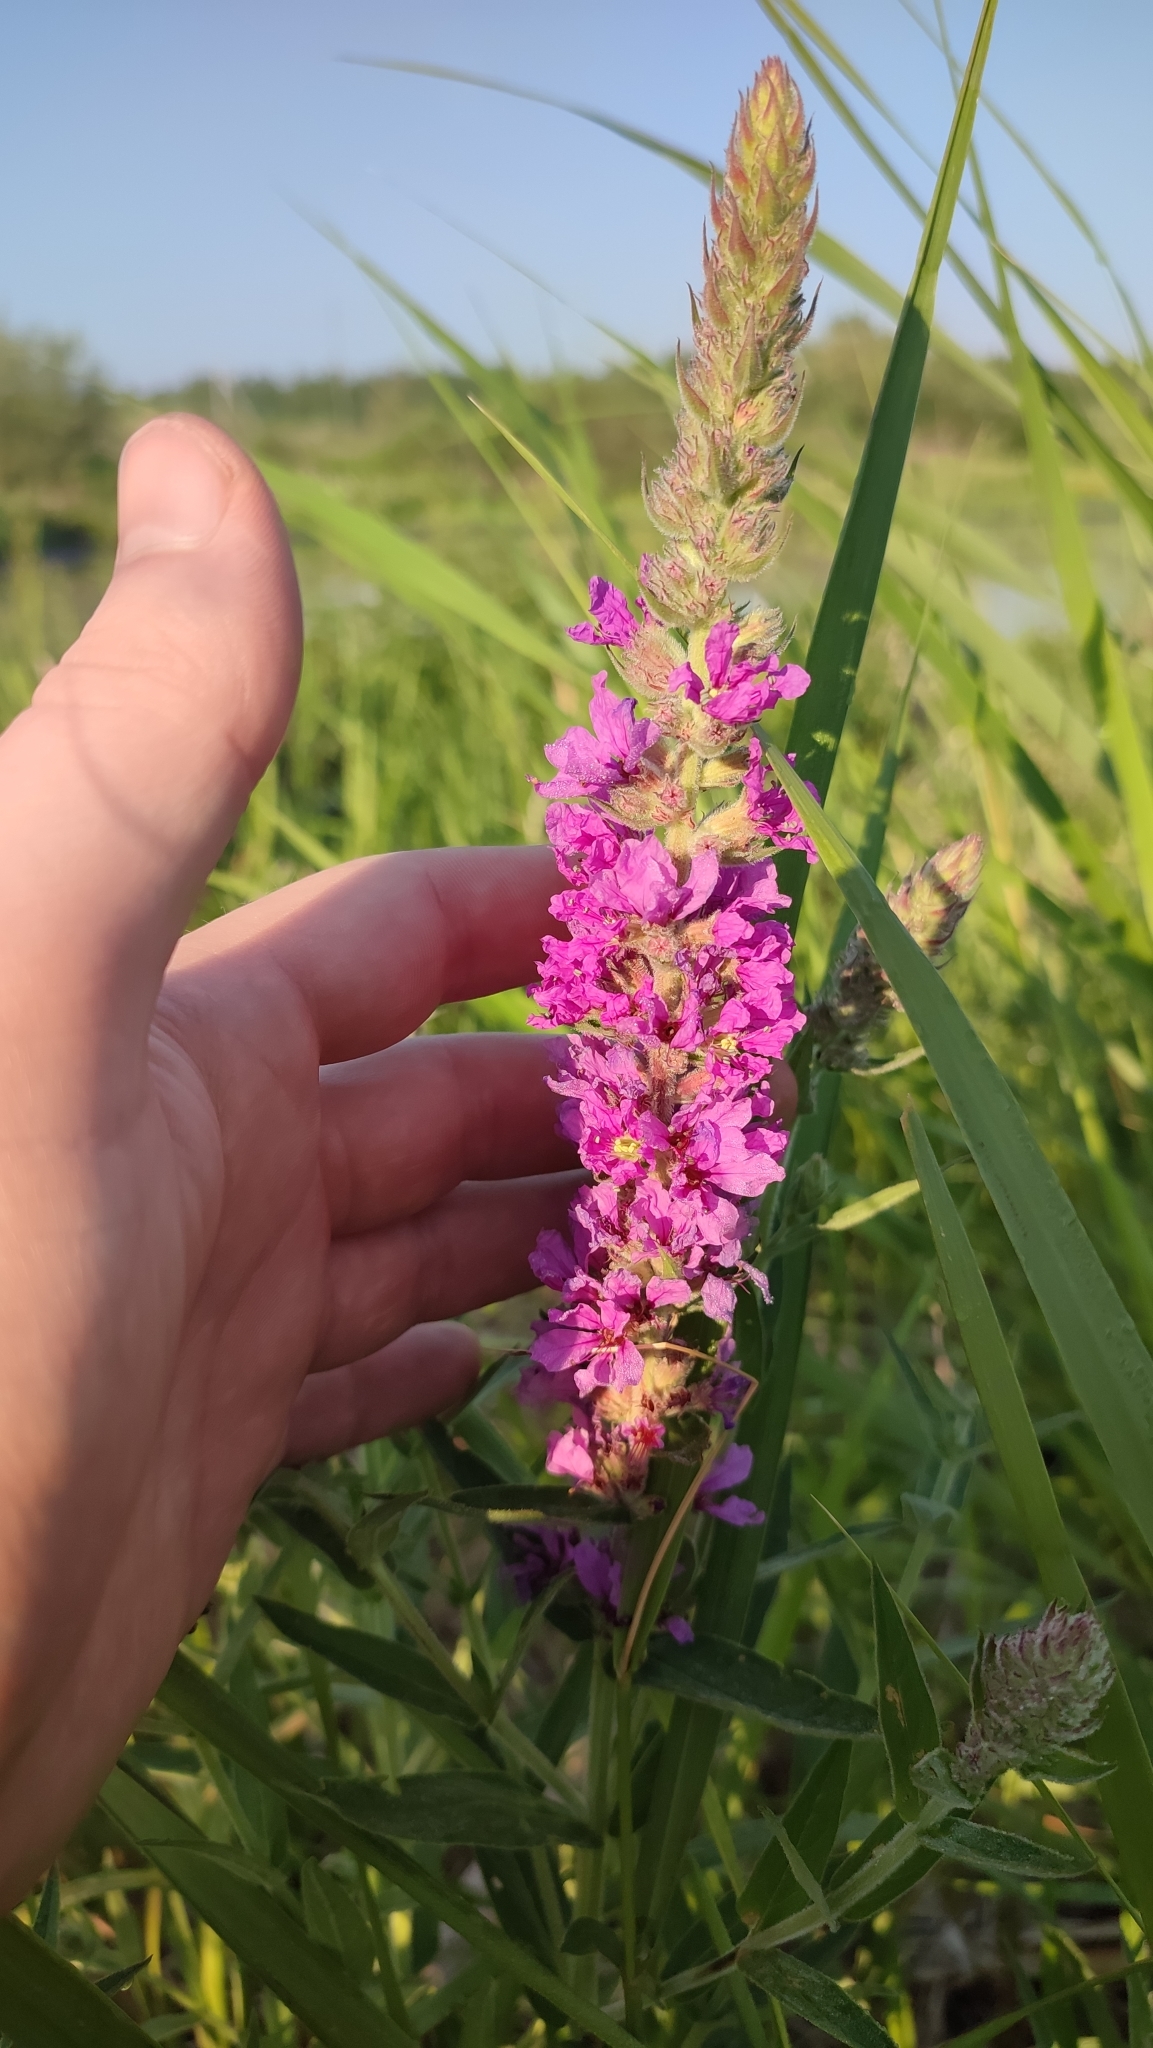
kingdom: Plantae
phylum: Tracheophyta
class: Magnoliopsida
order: Myrtales
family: Lythraceae
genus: Lythrum
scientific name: Lythrum salicaria
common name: Purple loosestrife
